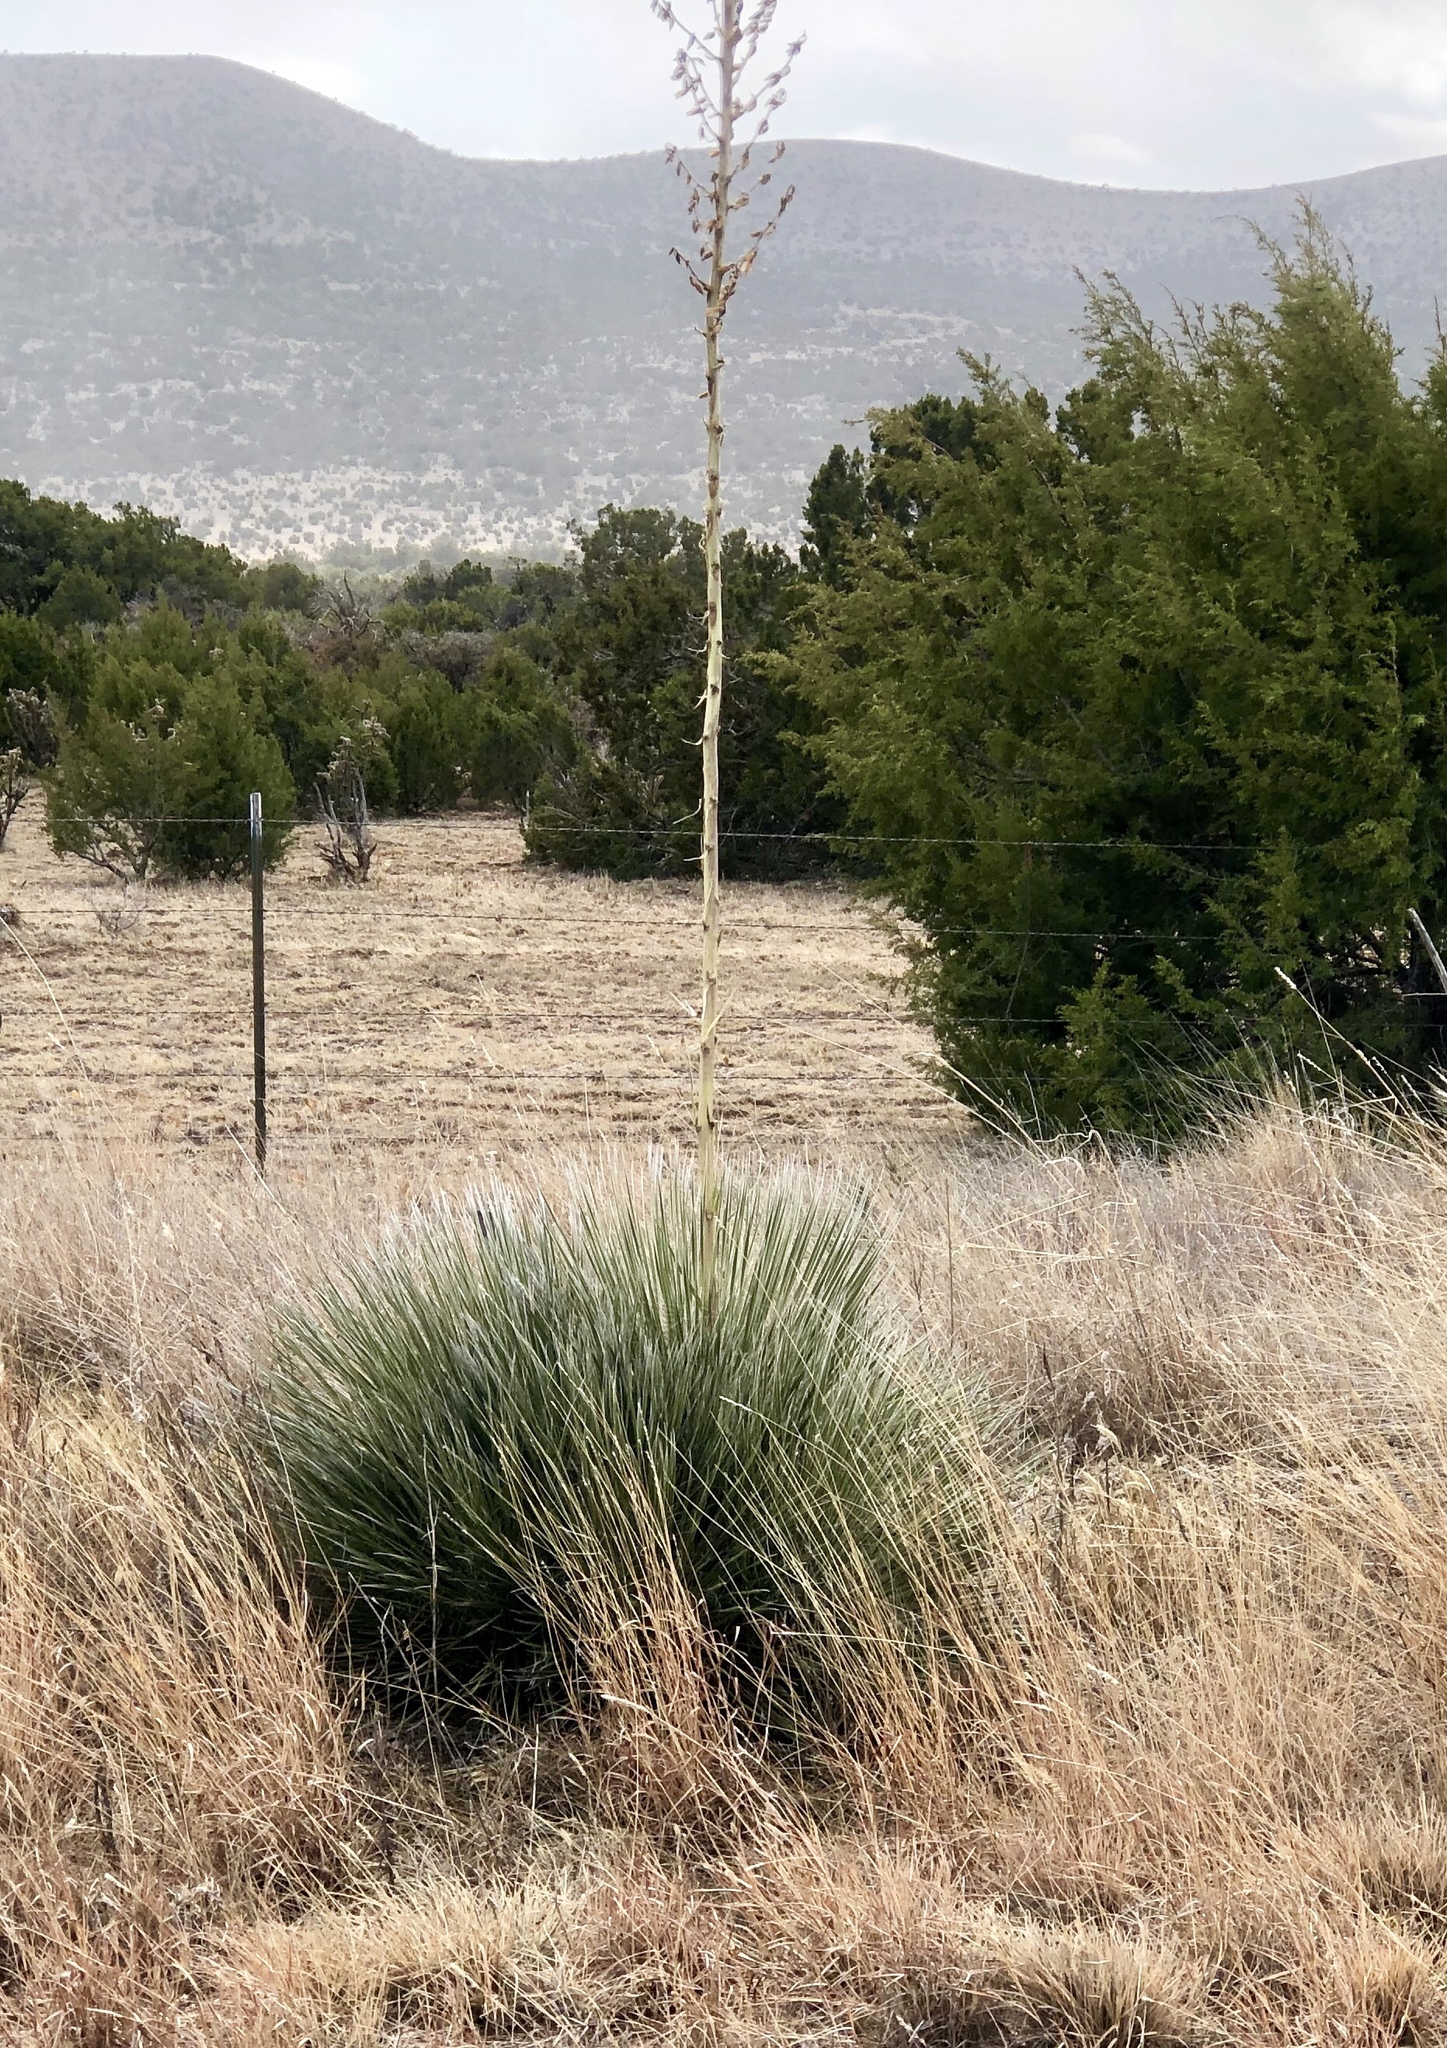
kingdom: Plantae
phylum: Tracheophyta
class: Liliopsida
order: Asparagales
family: Asparagaceae
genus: Yucca
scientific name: Yucca elata
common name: Palmella
